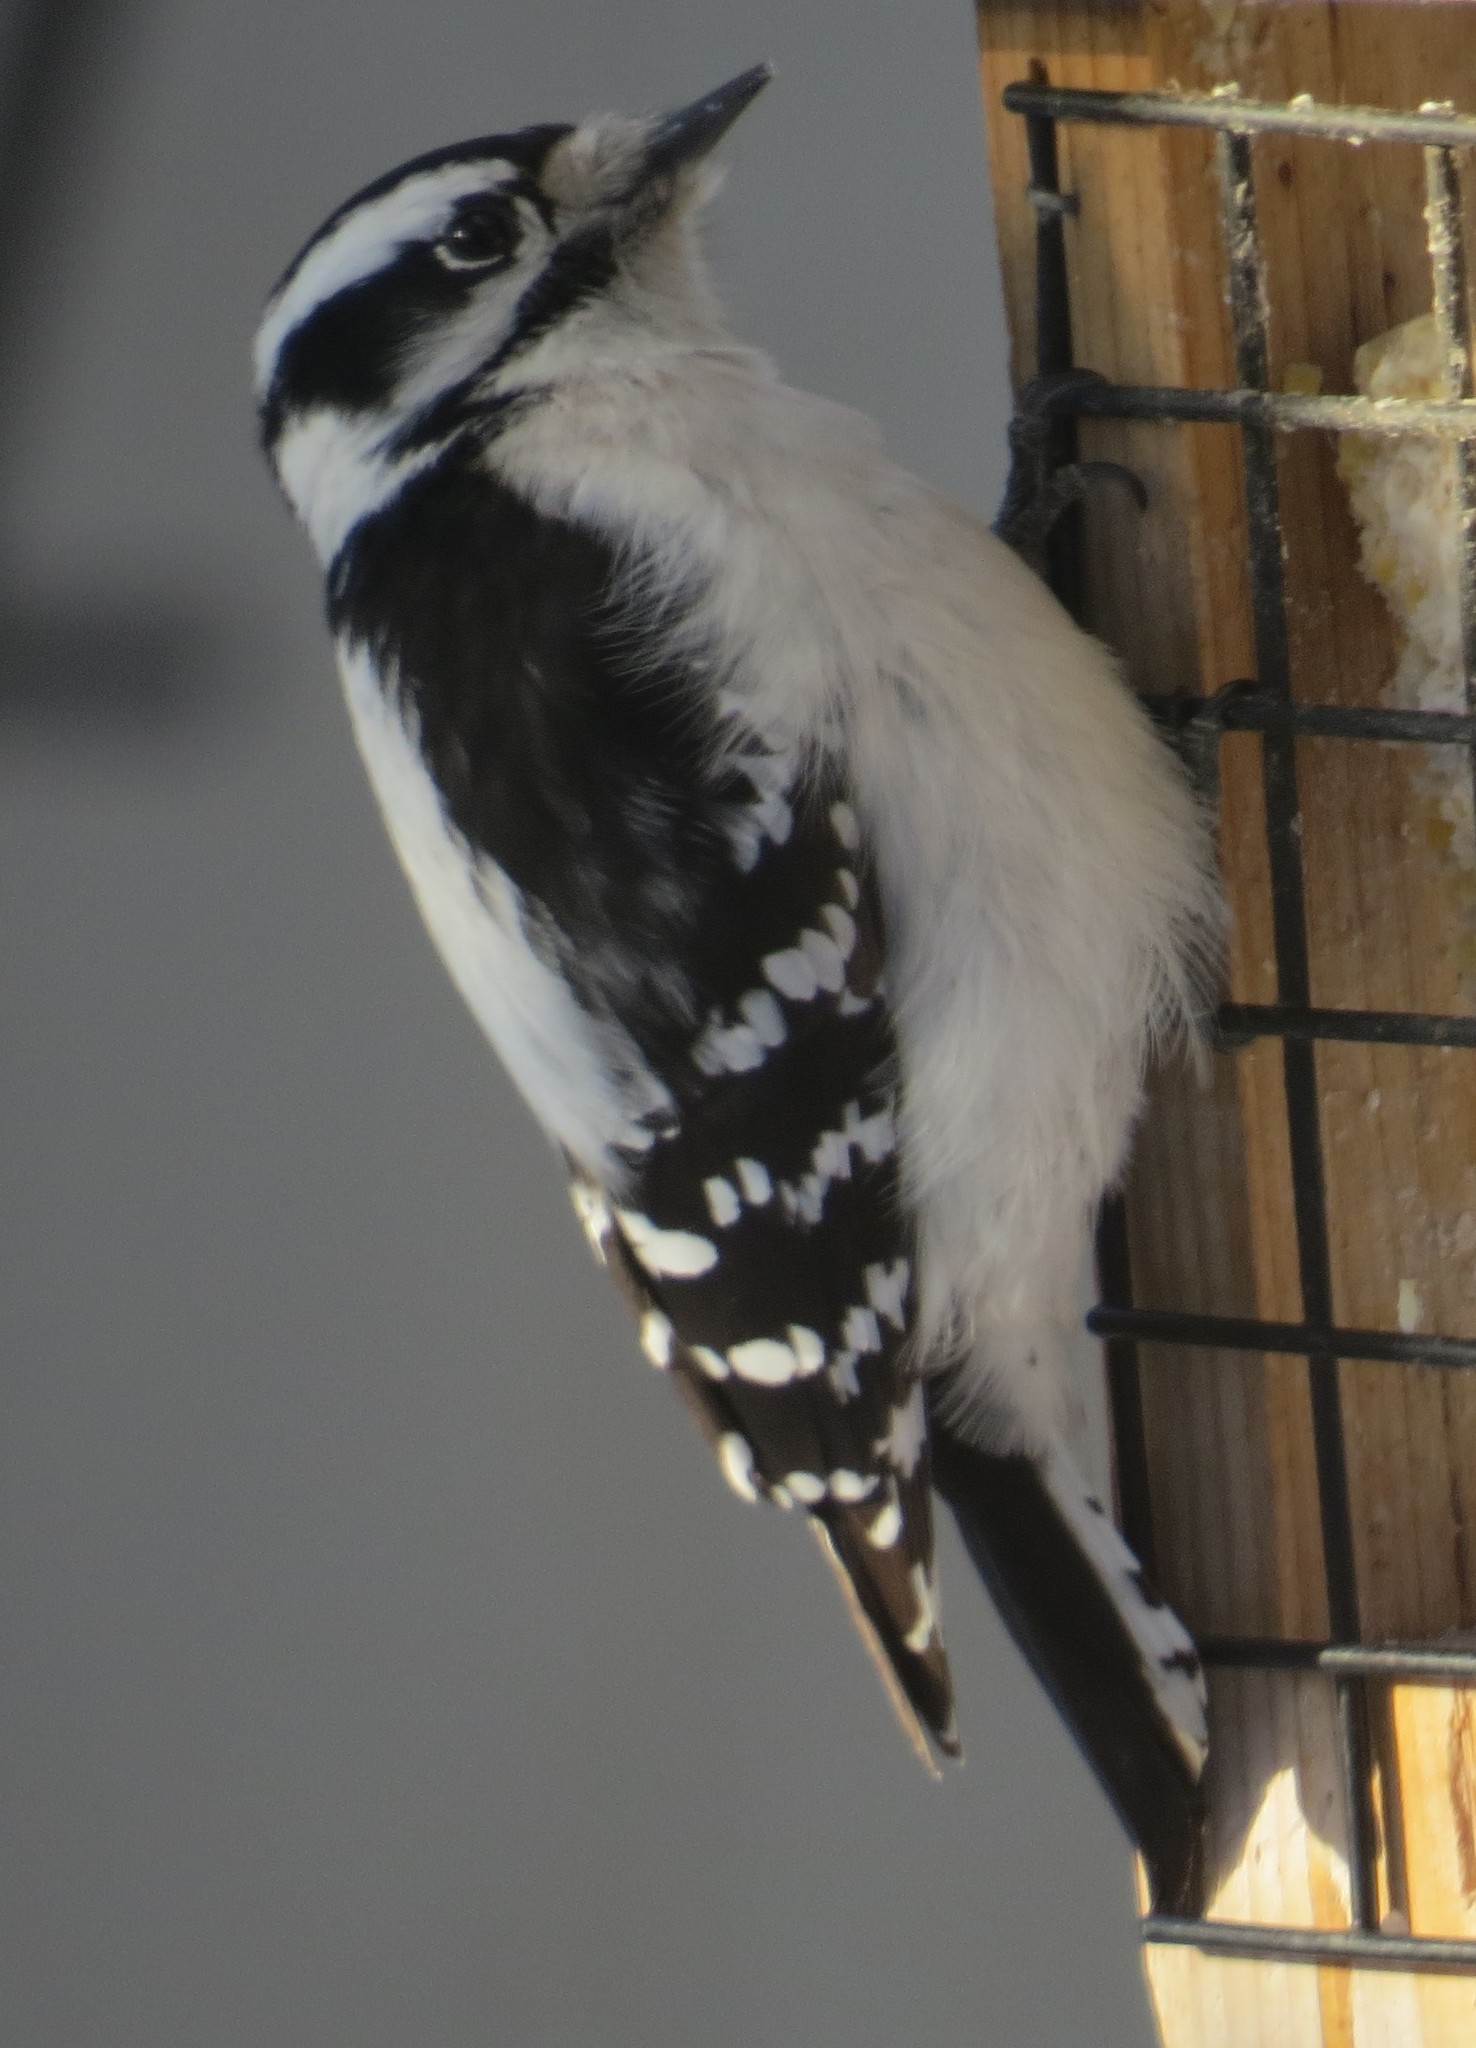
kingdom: Animalia
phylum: Chordata
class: Aves
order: Piciformes
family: Picidae
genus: Dryobates
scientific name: Dryobates pubescens
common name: Downy woodpecker
